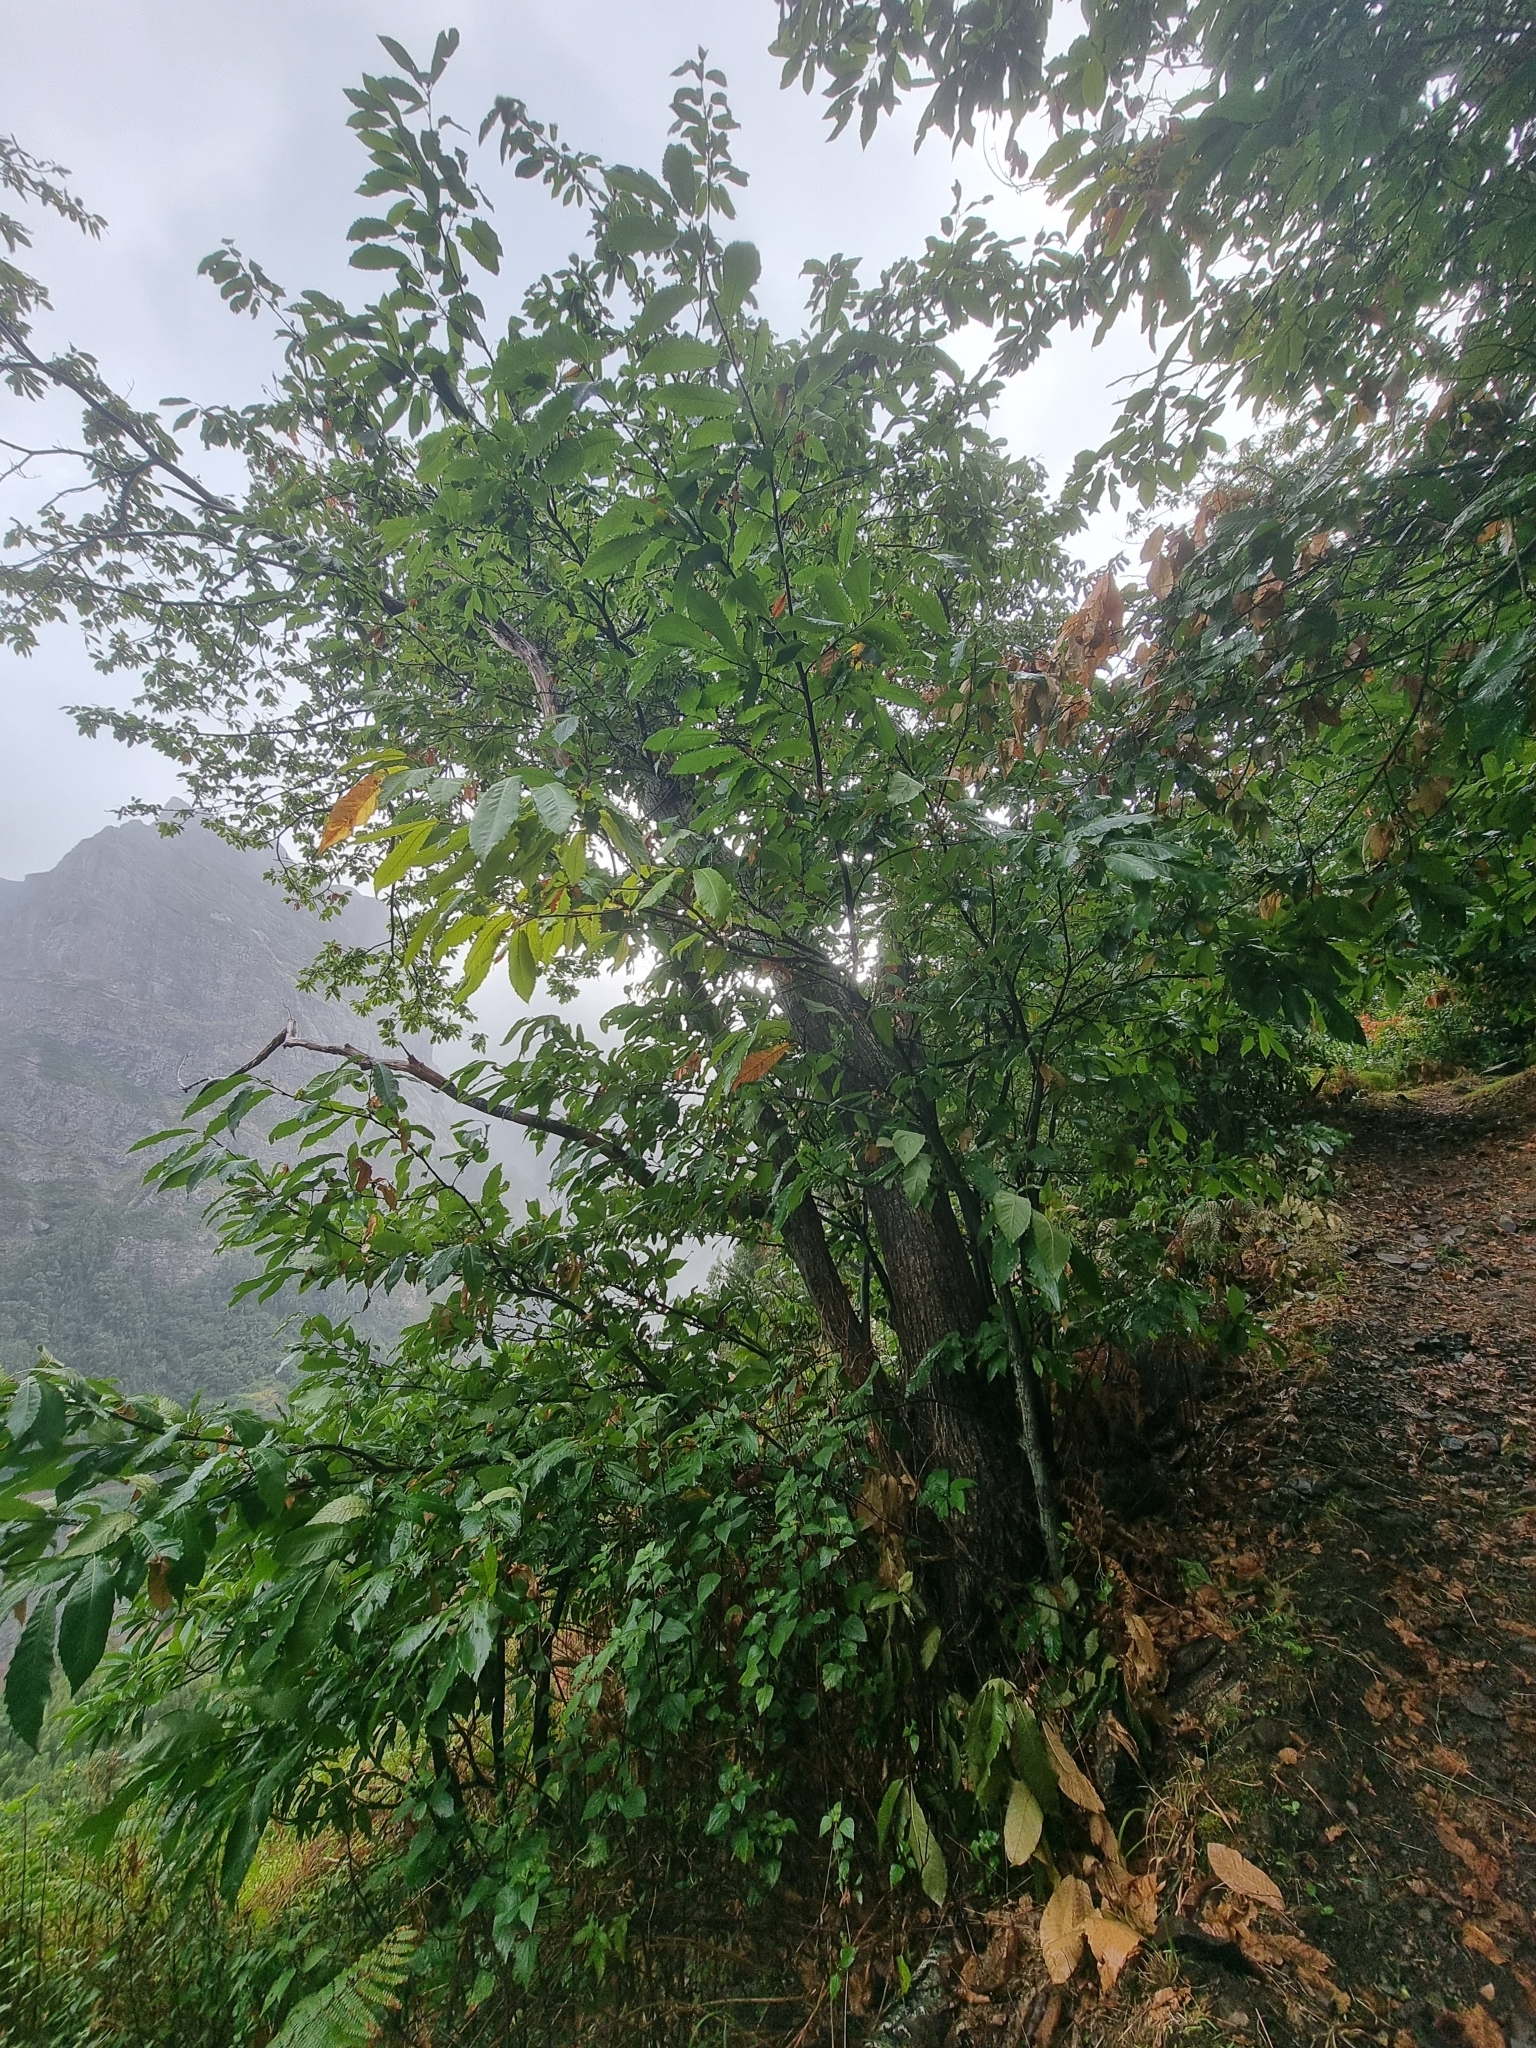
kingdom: Plantae
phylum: Tracheophyta
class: Magnoliopsida
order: Fagales
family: Fagaceae
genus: Castanea
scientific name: Castanea sativa
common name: Sweet chestnut
